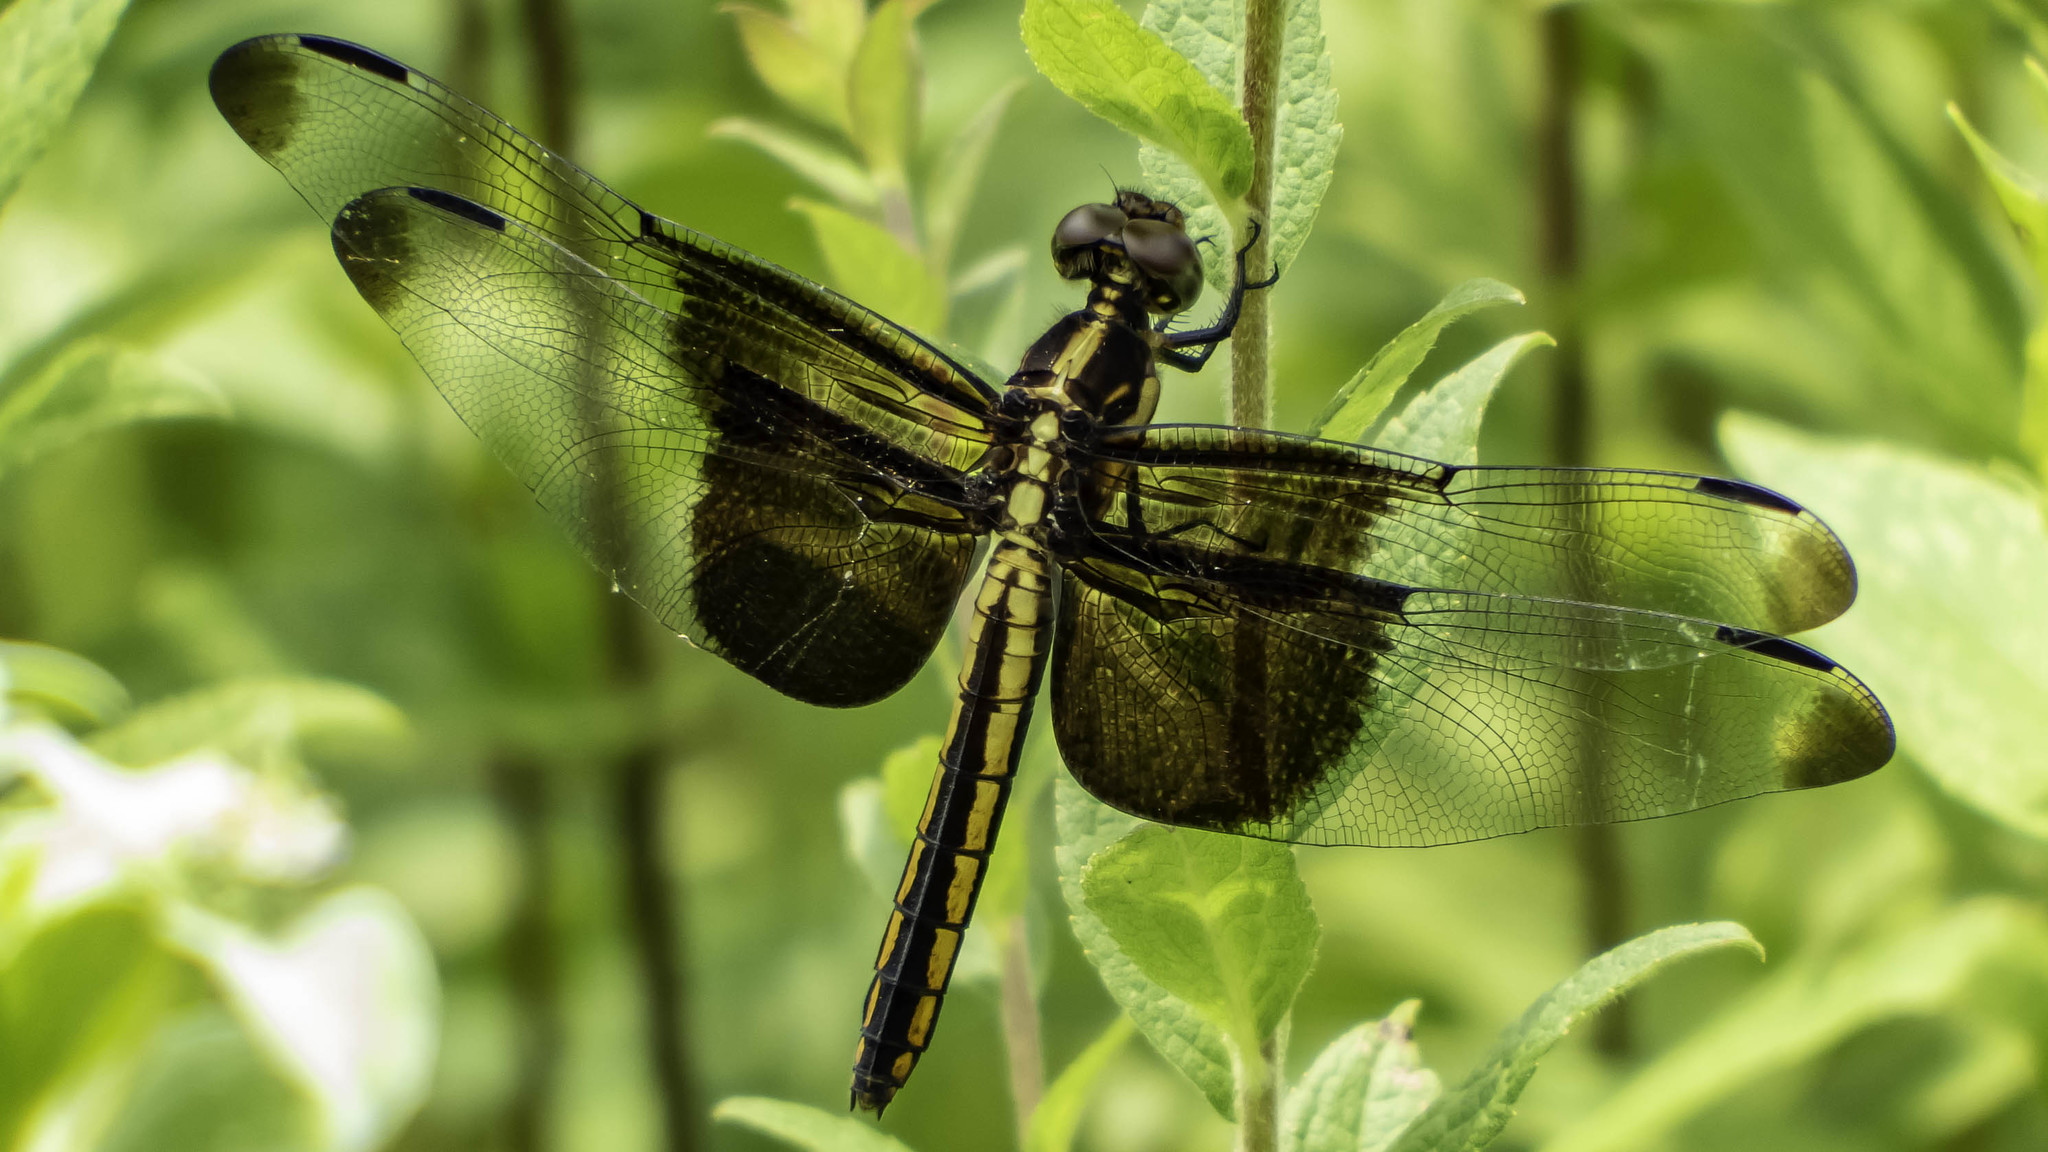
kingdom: Animalia
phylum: Arthropoda
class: Insecta
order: Odonata
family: Libellulidae
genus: Libellula
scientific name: Libellula luctuosa
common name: Widow skimmer
